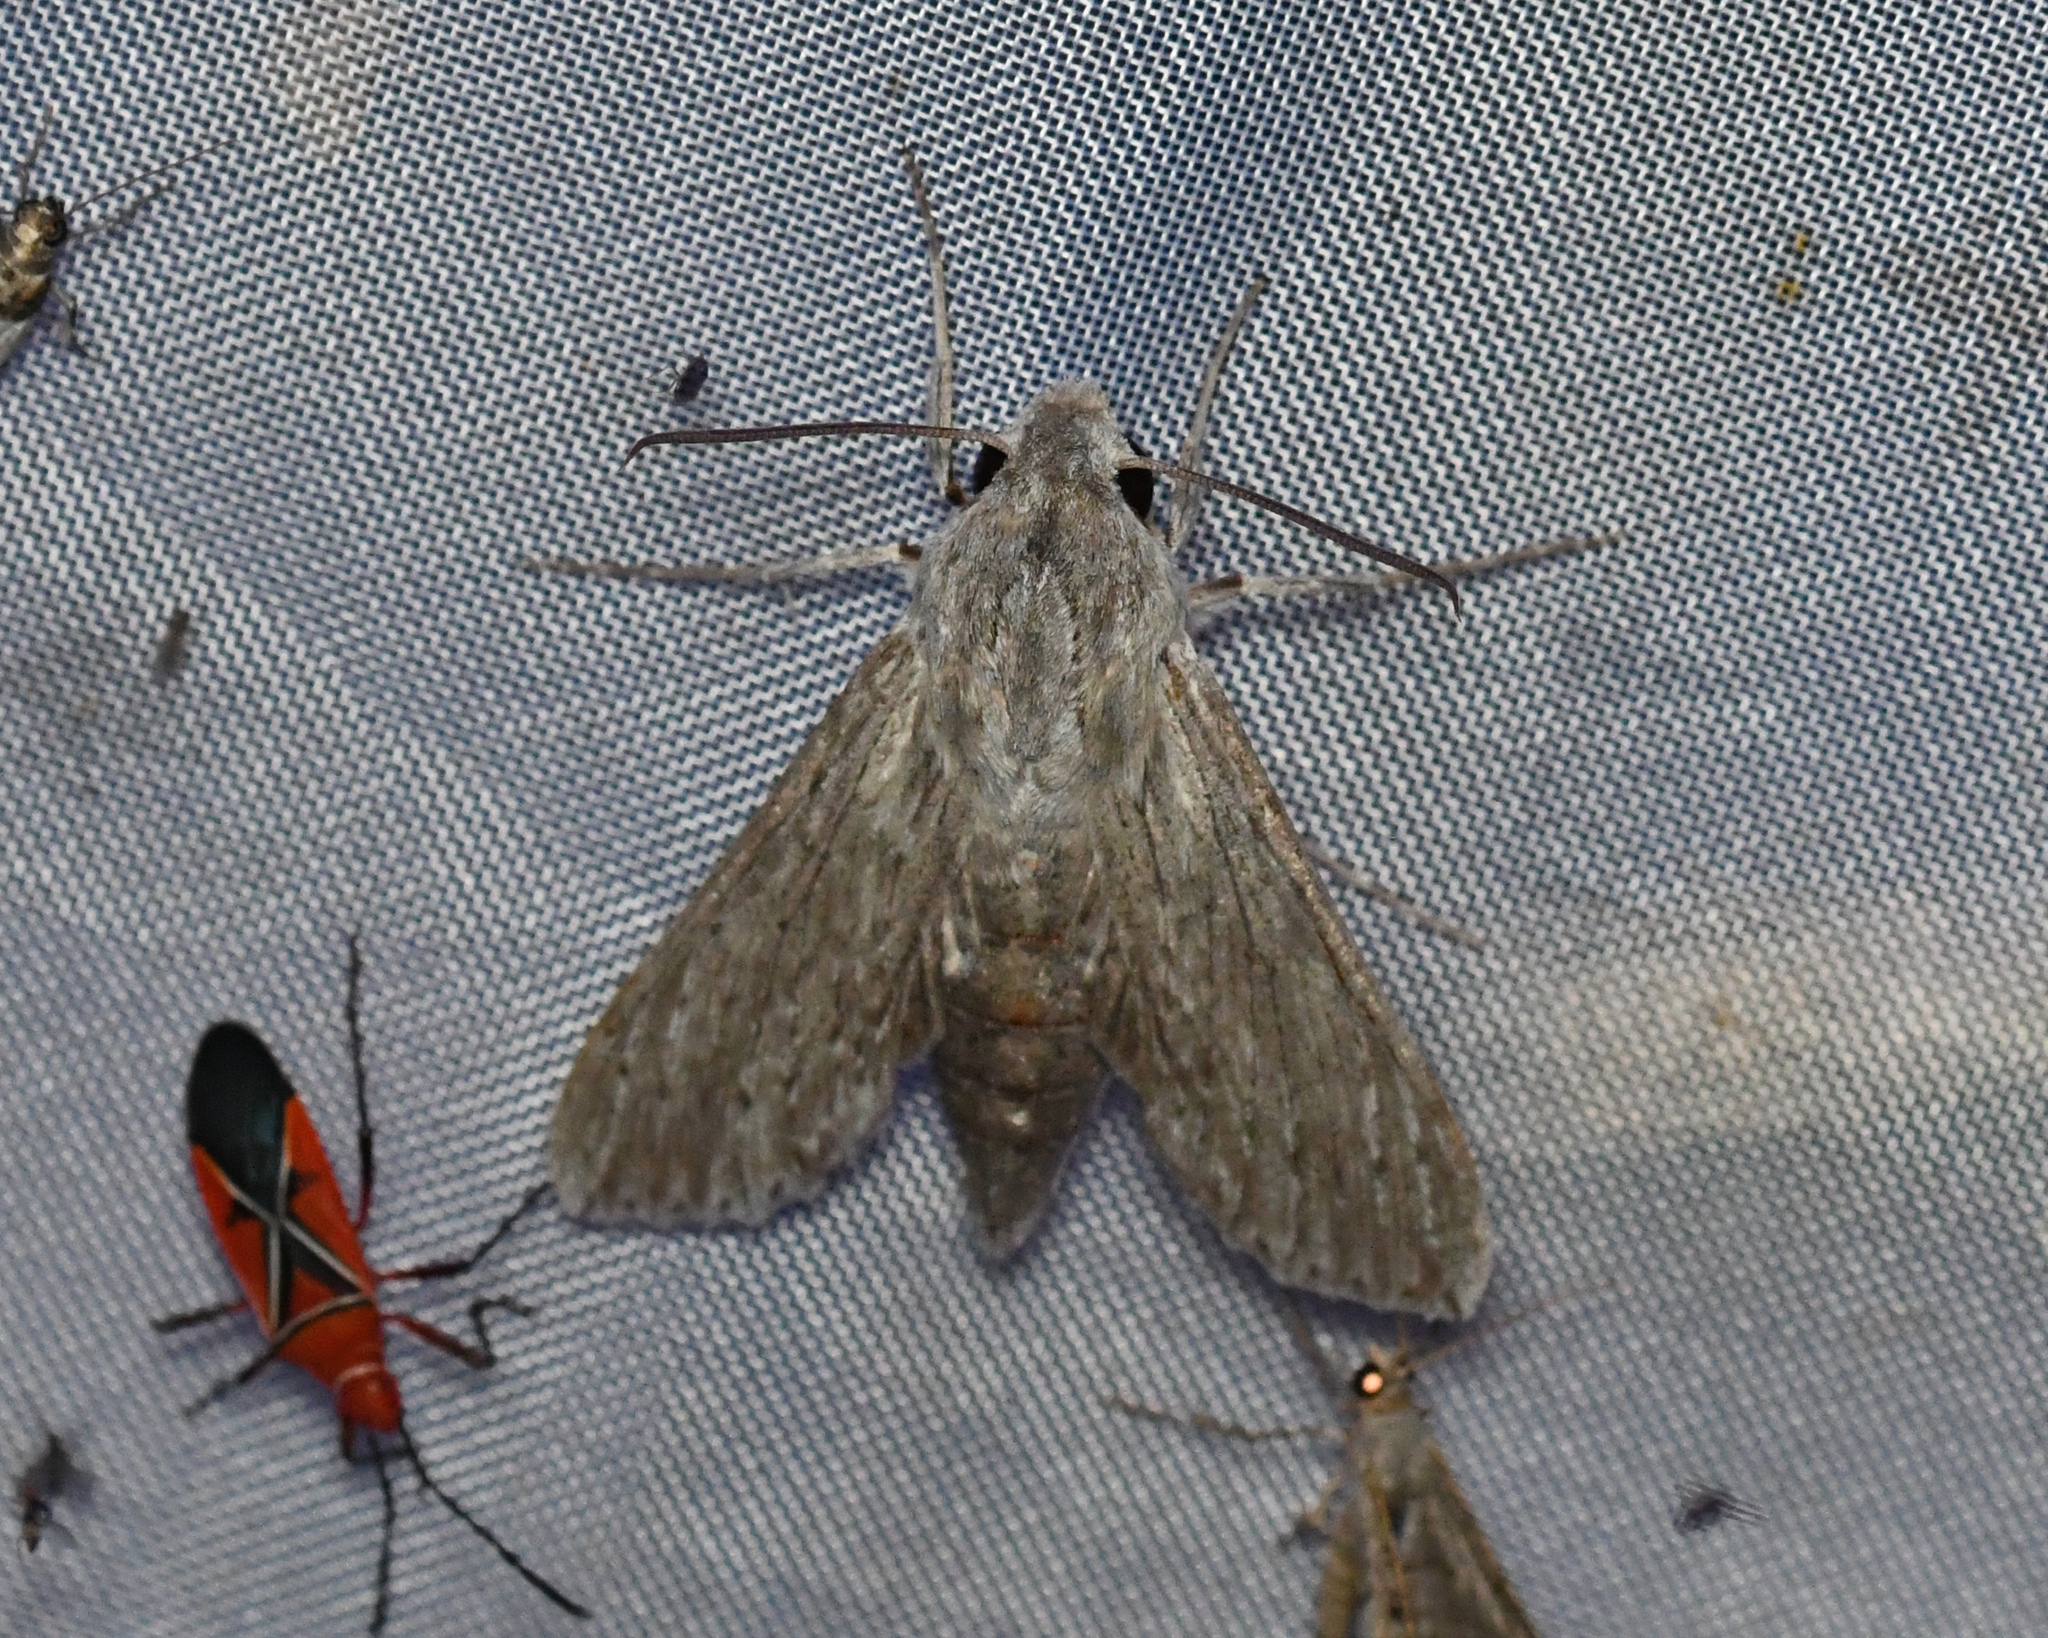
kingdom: Animalia
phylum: Arthropoda
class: Insecta
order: Lepidoptera
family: Sphingidae
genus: Erinnyis
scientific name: Erinnyis guttularis
